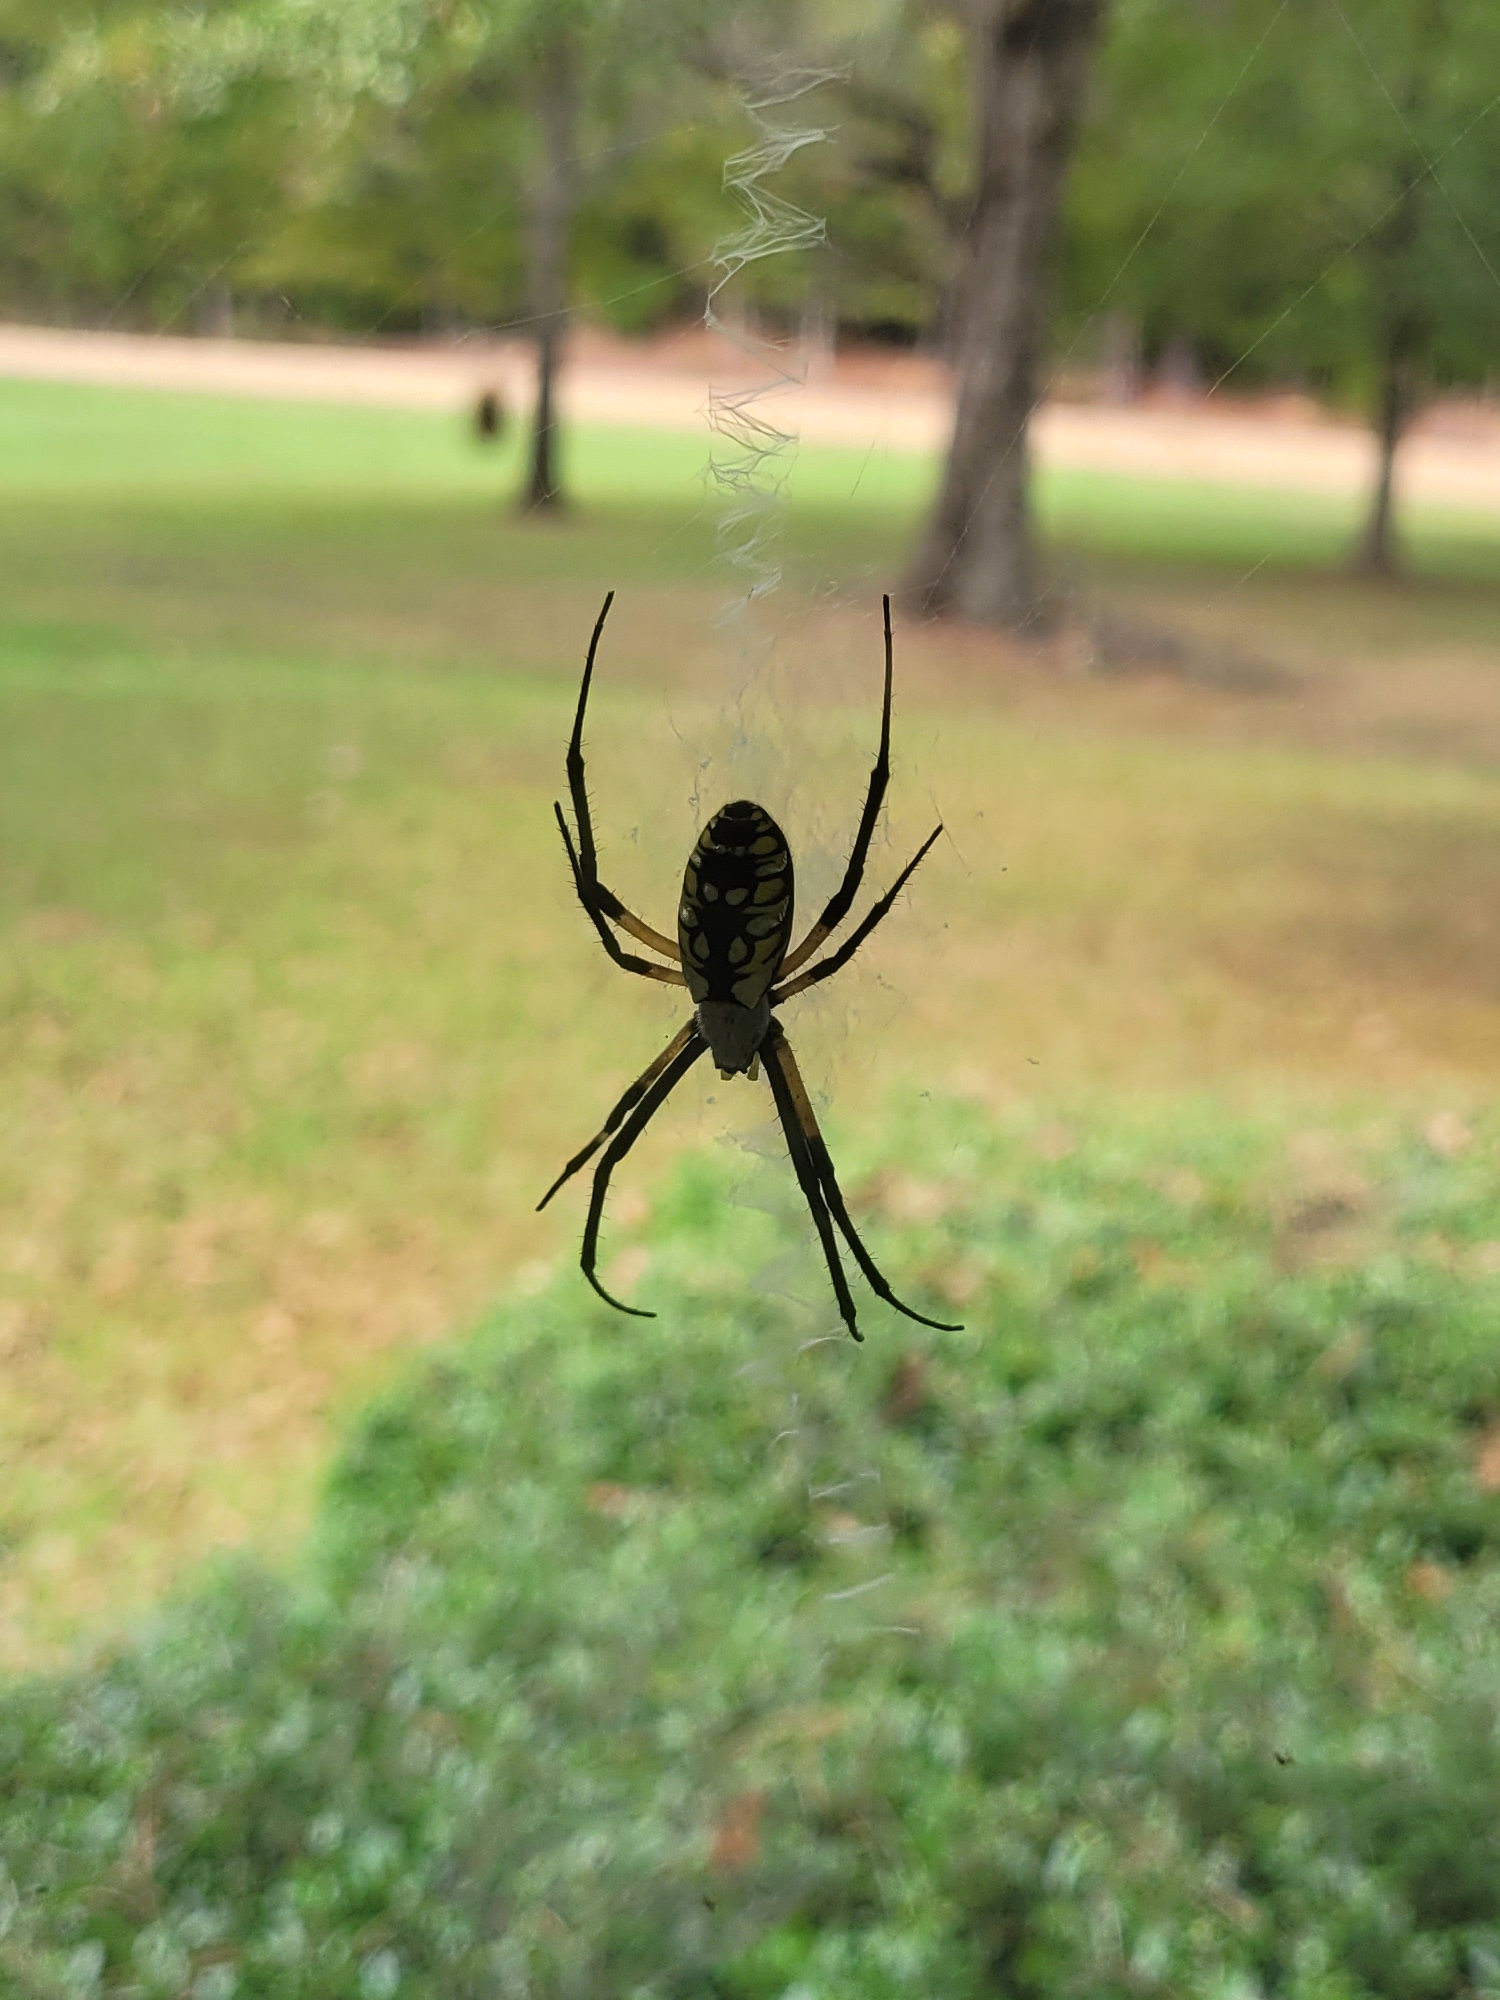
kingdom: Animalia
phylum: Arthropoda
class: Arachnida
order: Araneae
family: Araneidae
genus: Argiope
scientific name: Argiope aurantia
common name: Orb weavers
